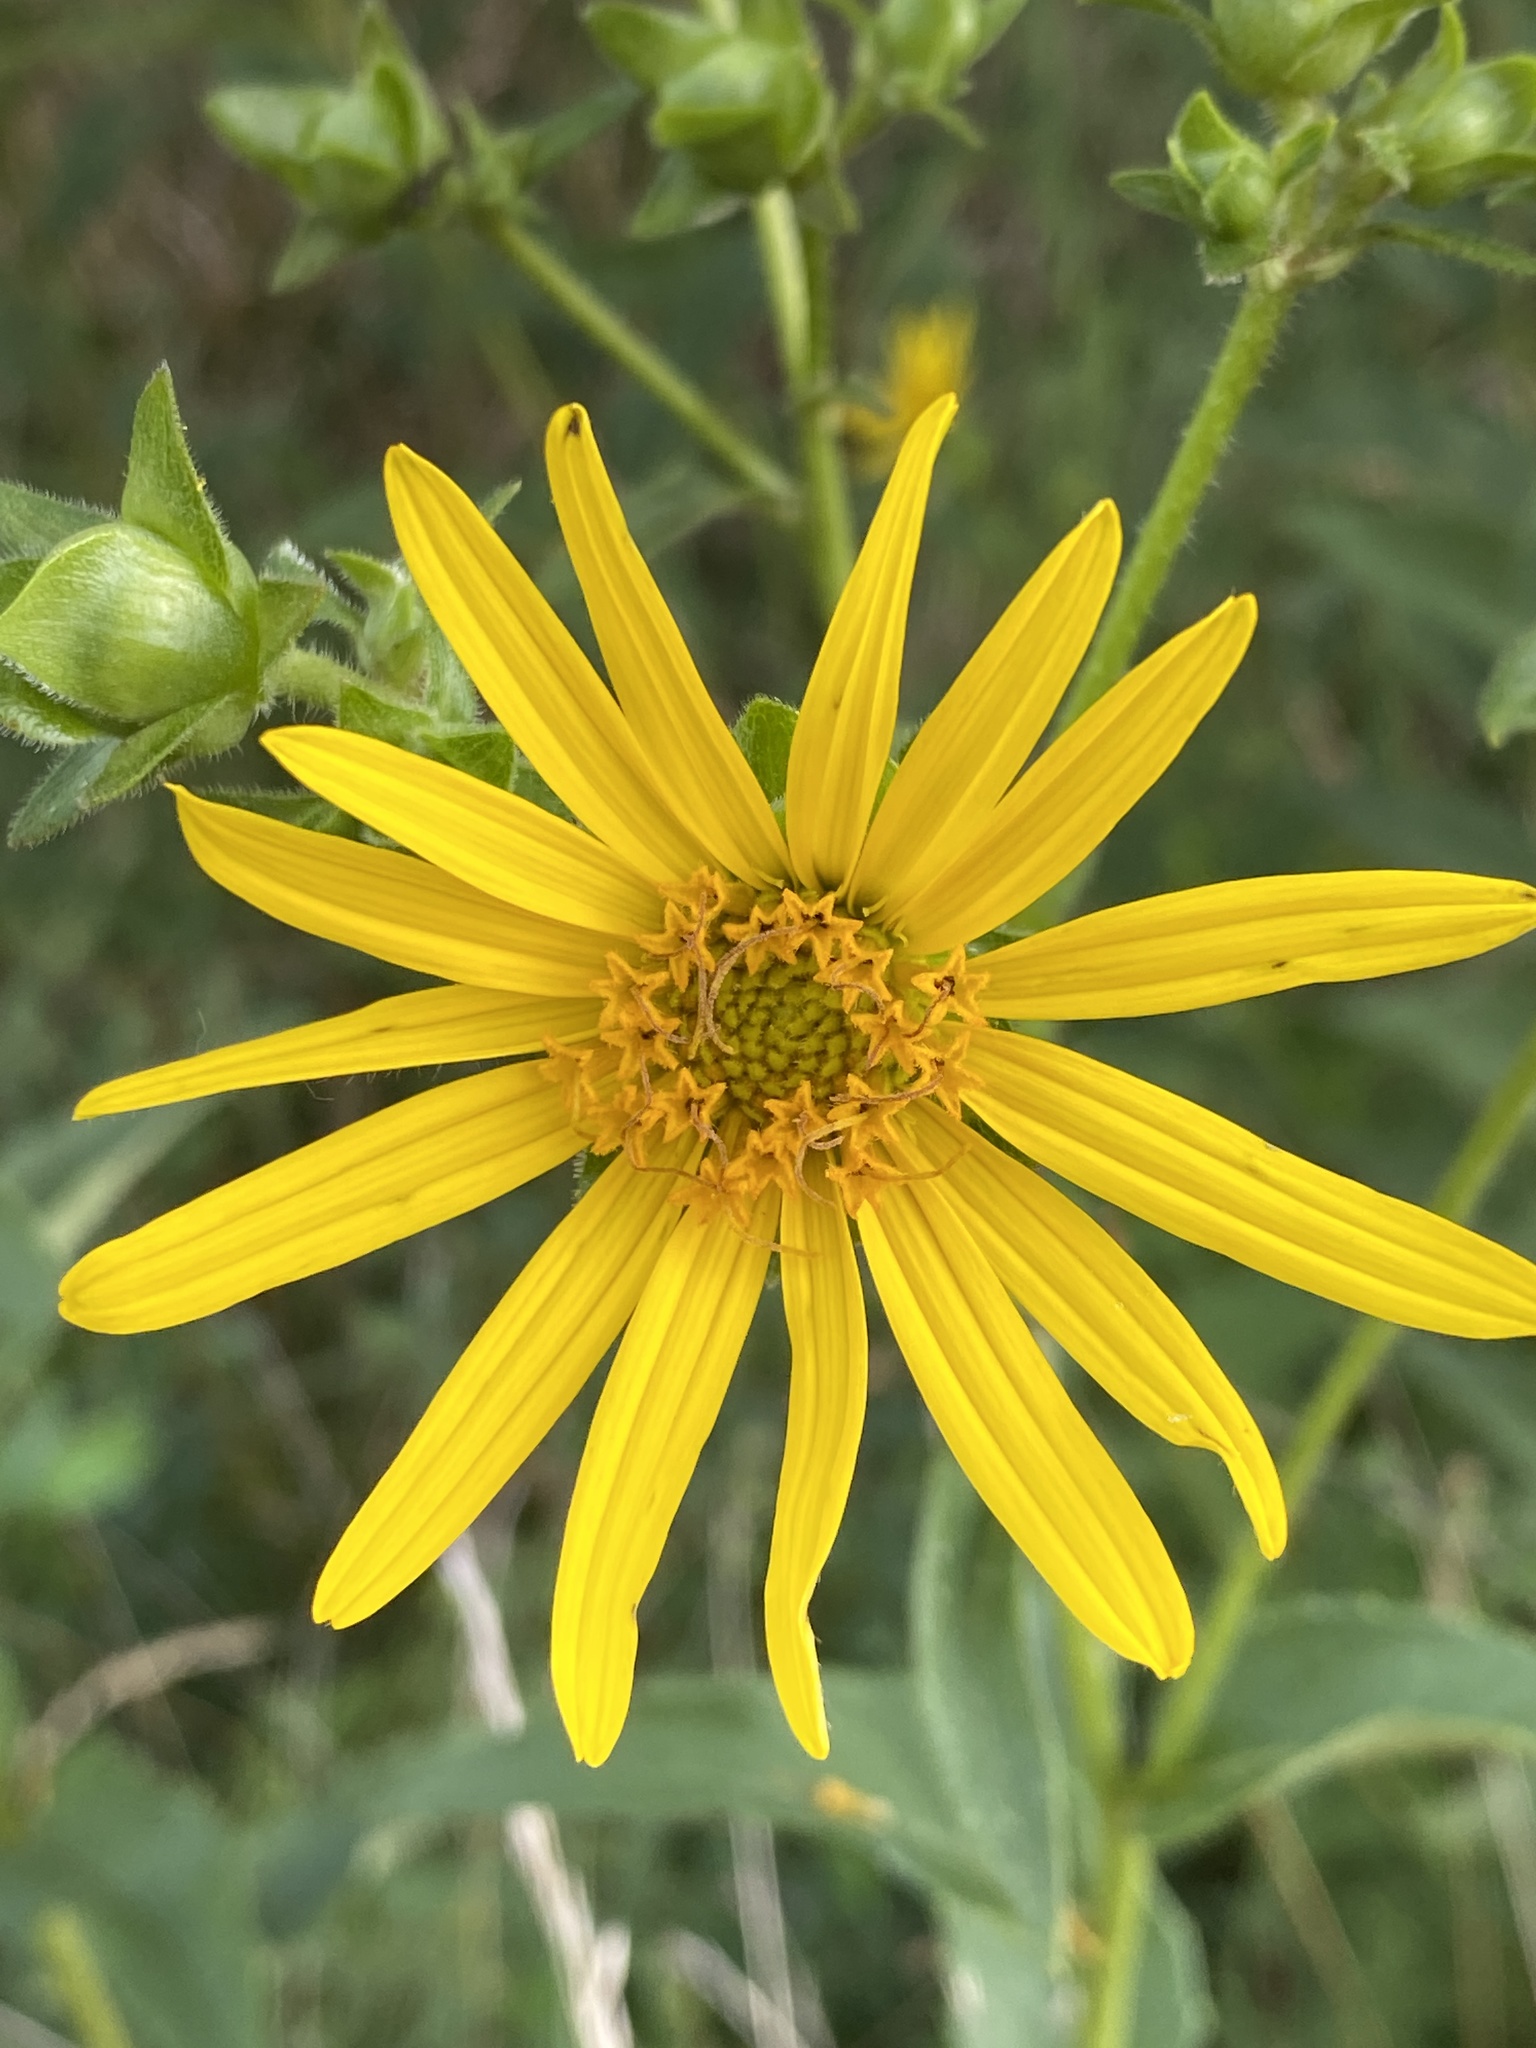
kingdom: Plantae
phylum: Tracheophyta
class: Magnoliopsida
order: Asterales
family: Asteraceae
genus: Silphium
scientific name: Silphium asteriscus
